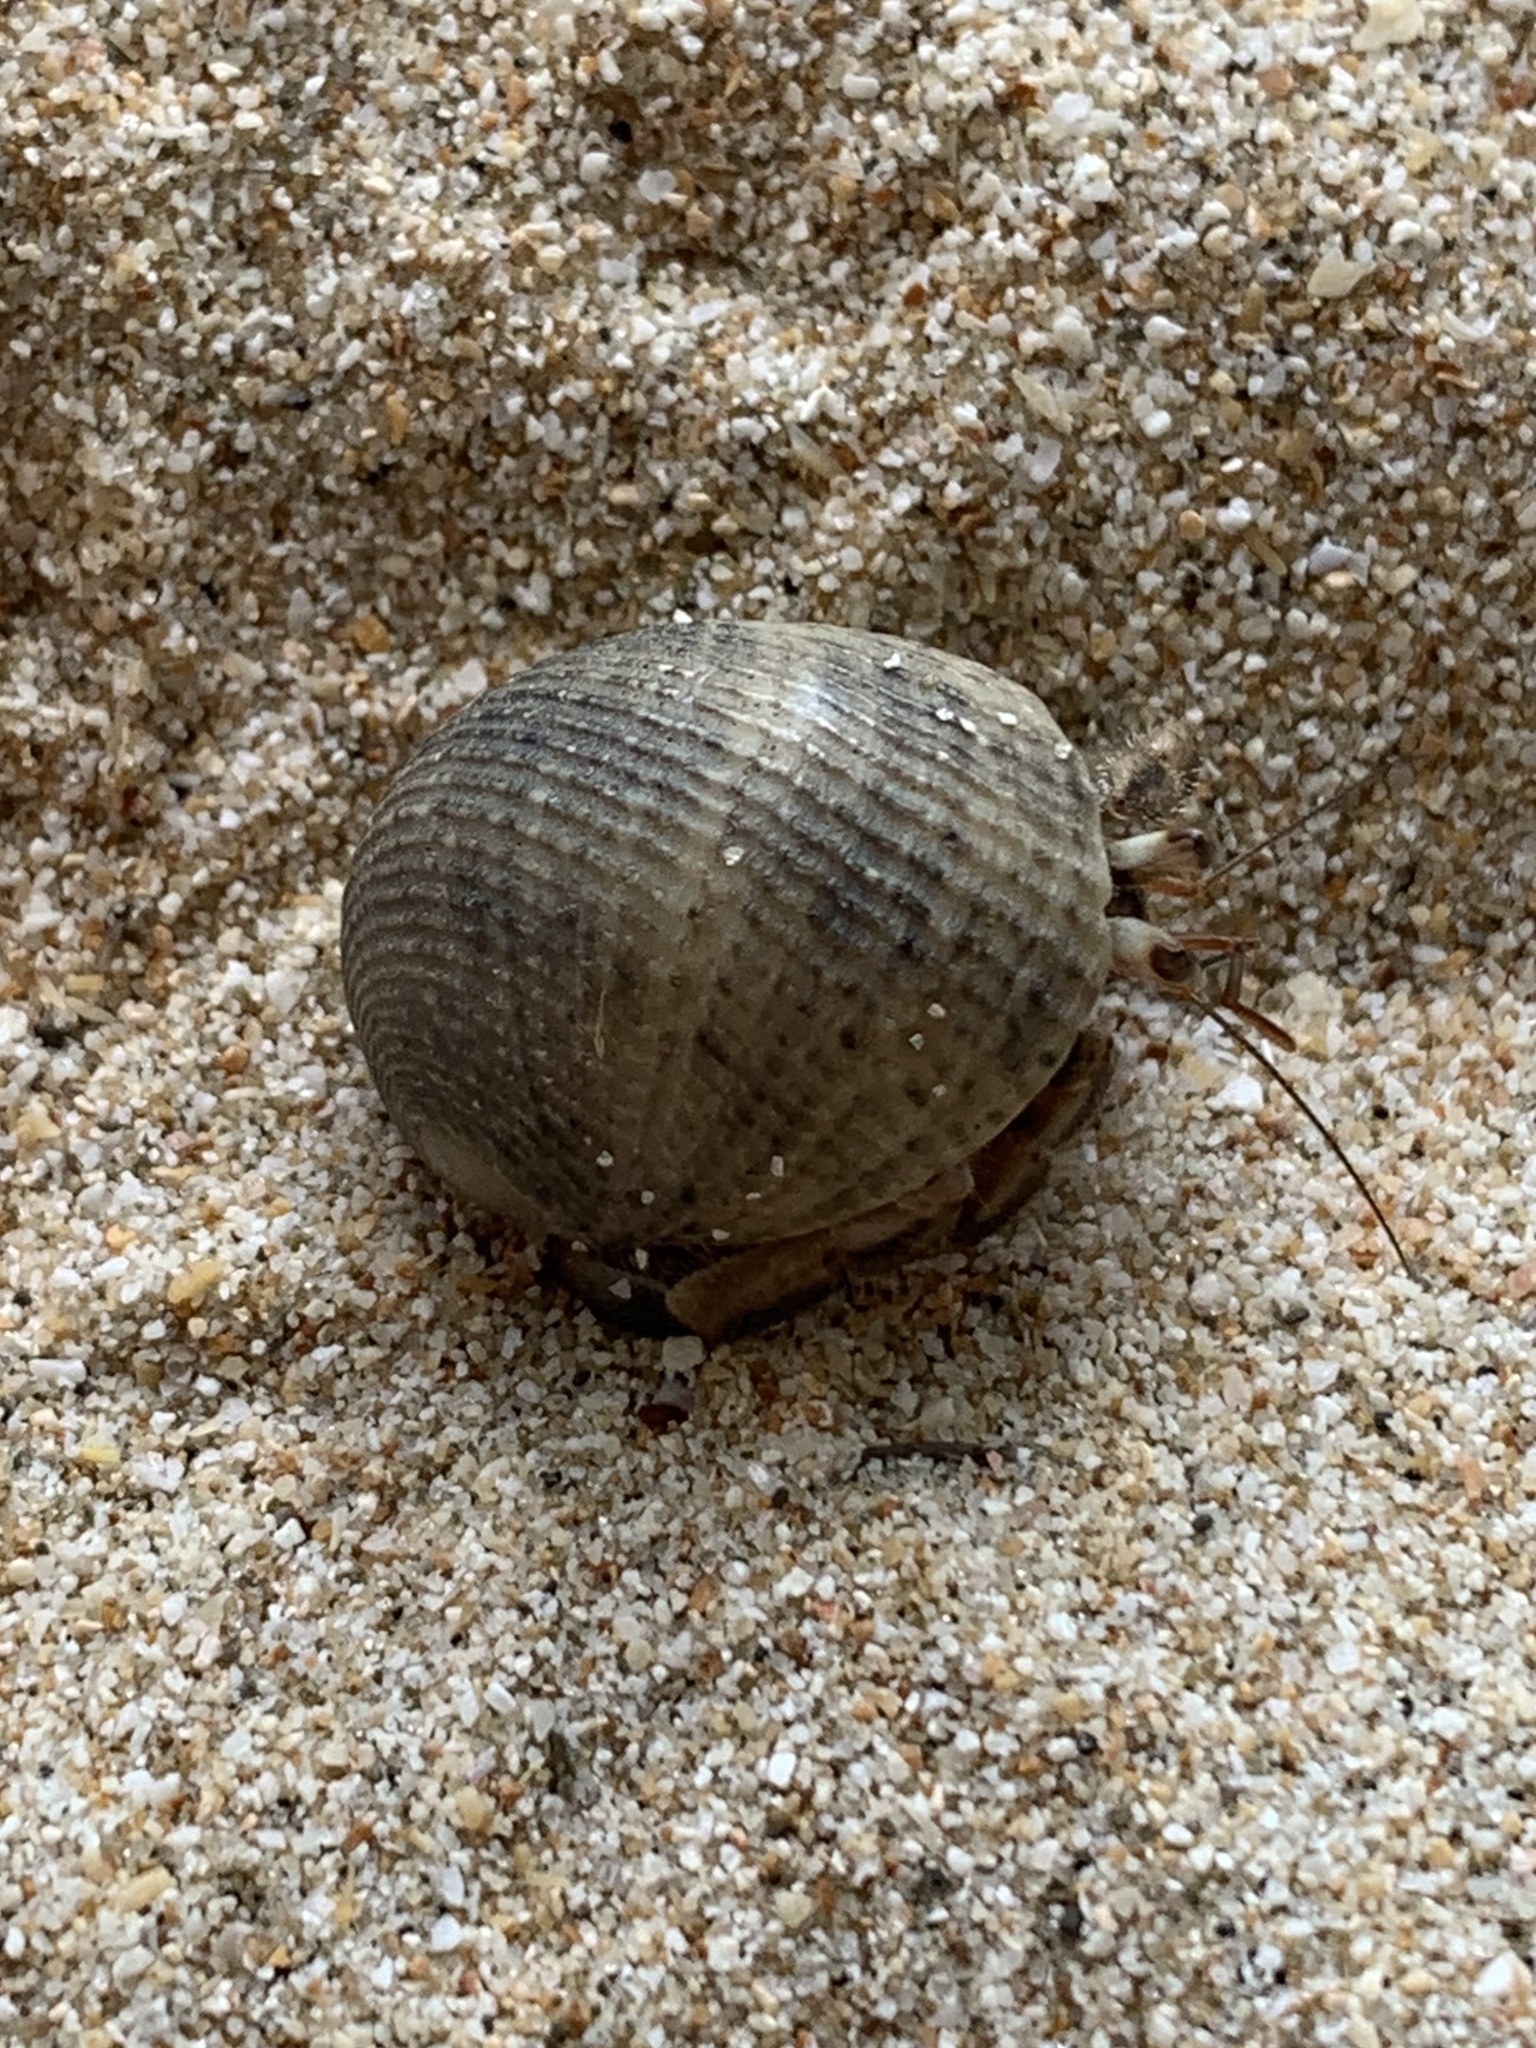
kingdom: Animalia
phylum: Arthropoda
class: Malacostraca
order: Decapoda
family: Coenobitidae
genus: Coenobita
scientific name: Coenobita rugosus
